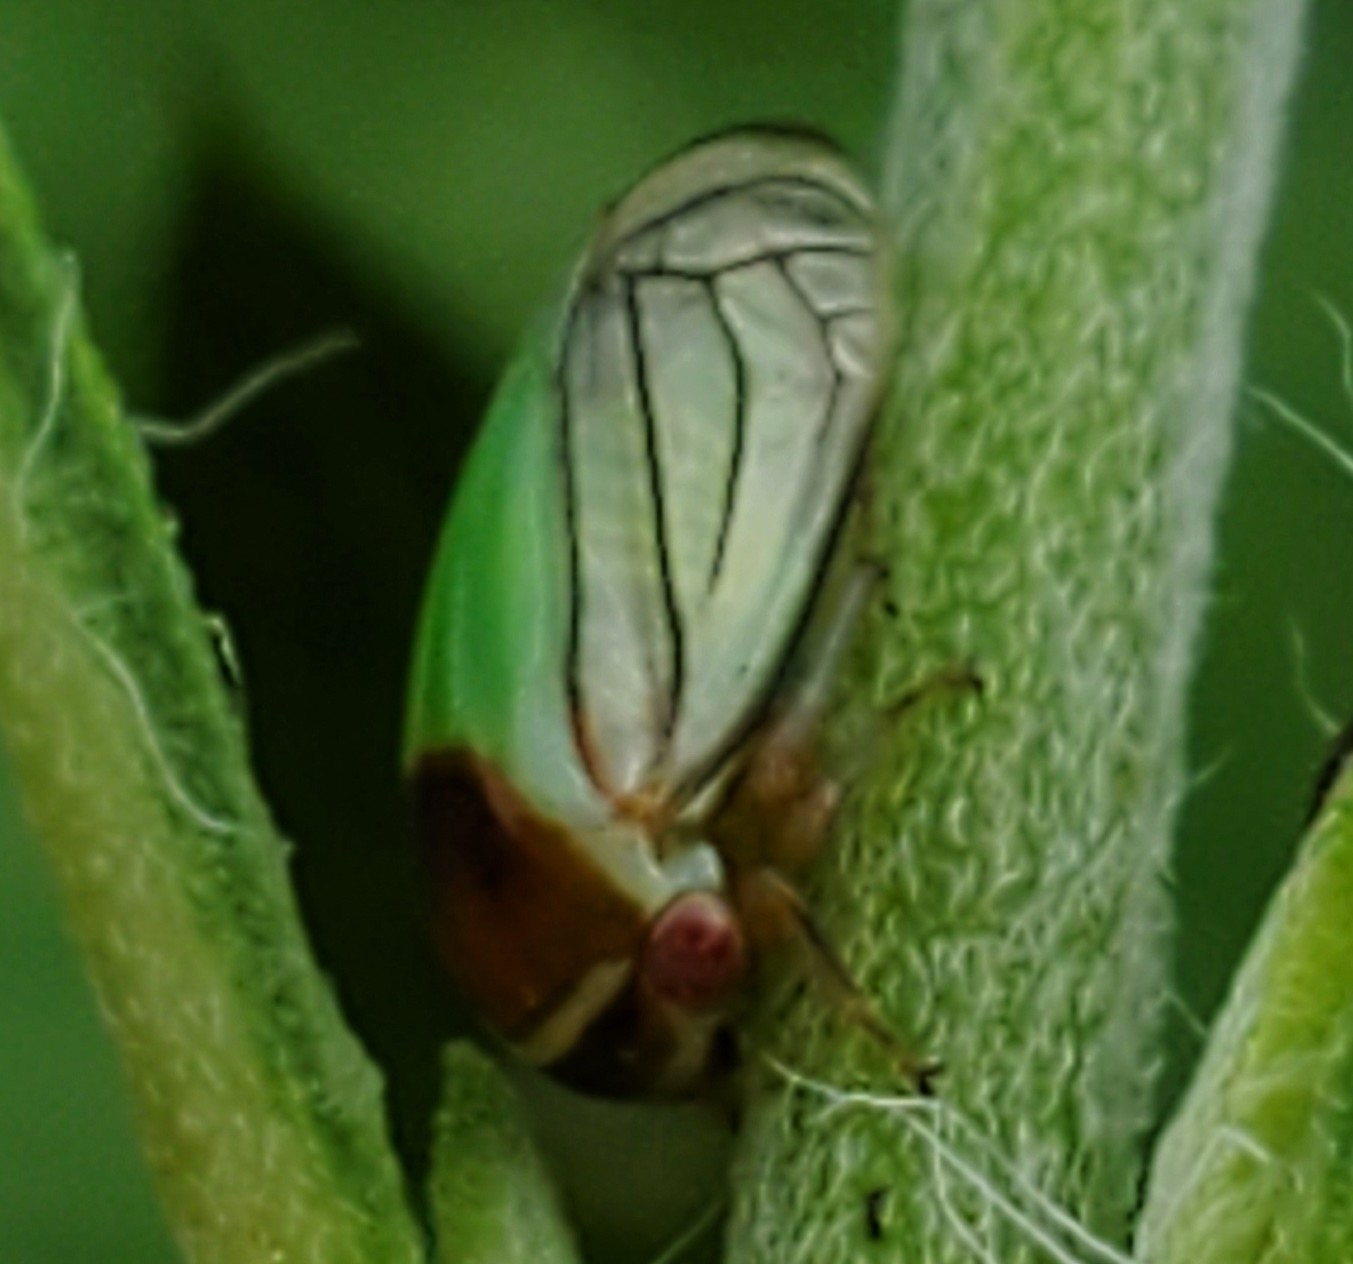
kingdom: Animalia
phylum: Arthropoda
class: Insecta
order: Hemiptera
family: Membracidae
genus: Acutalis
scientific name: Acutalis tartarea
